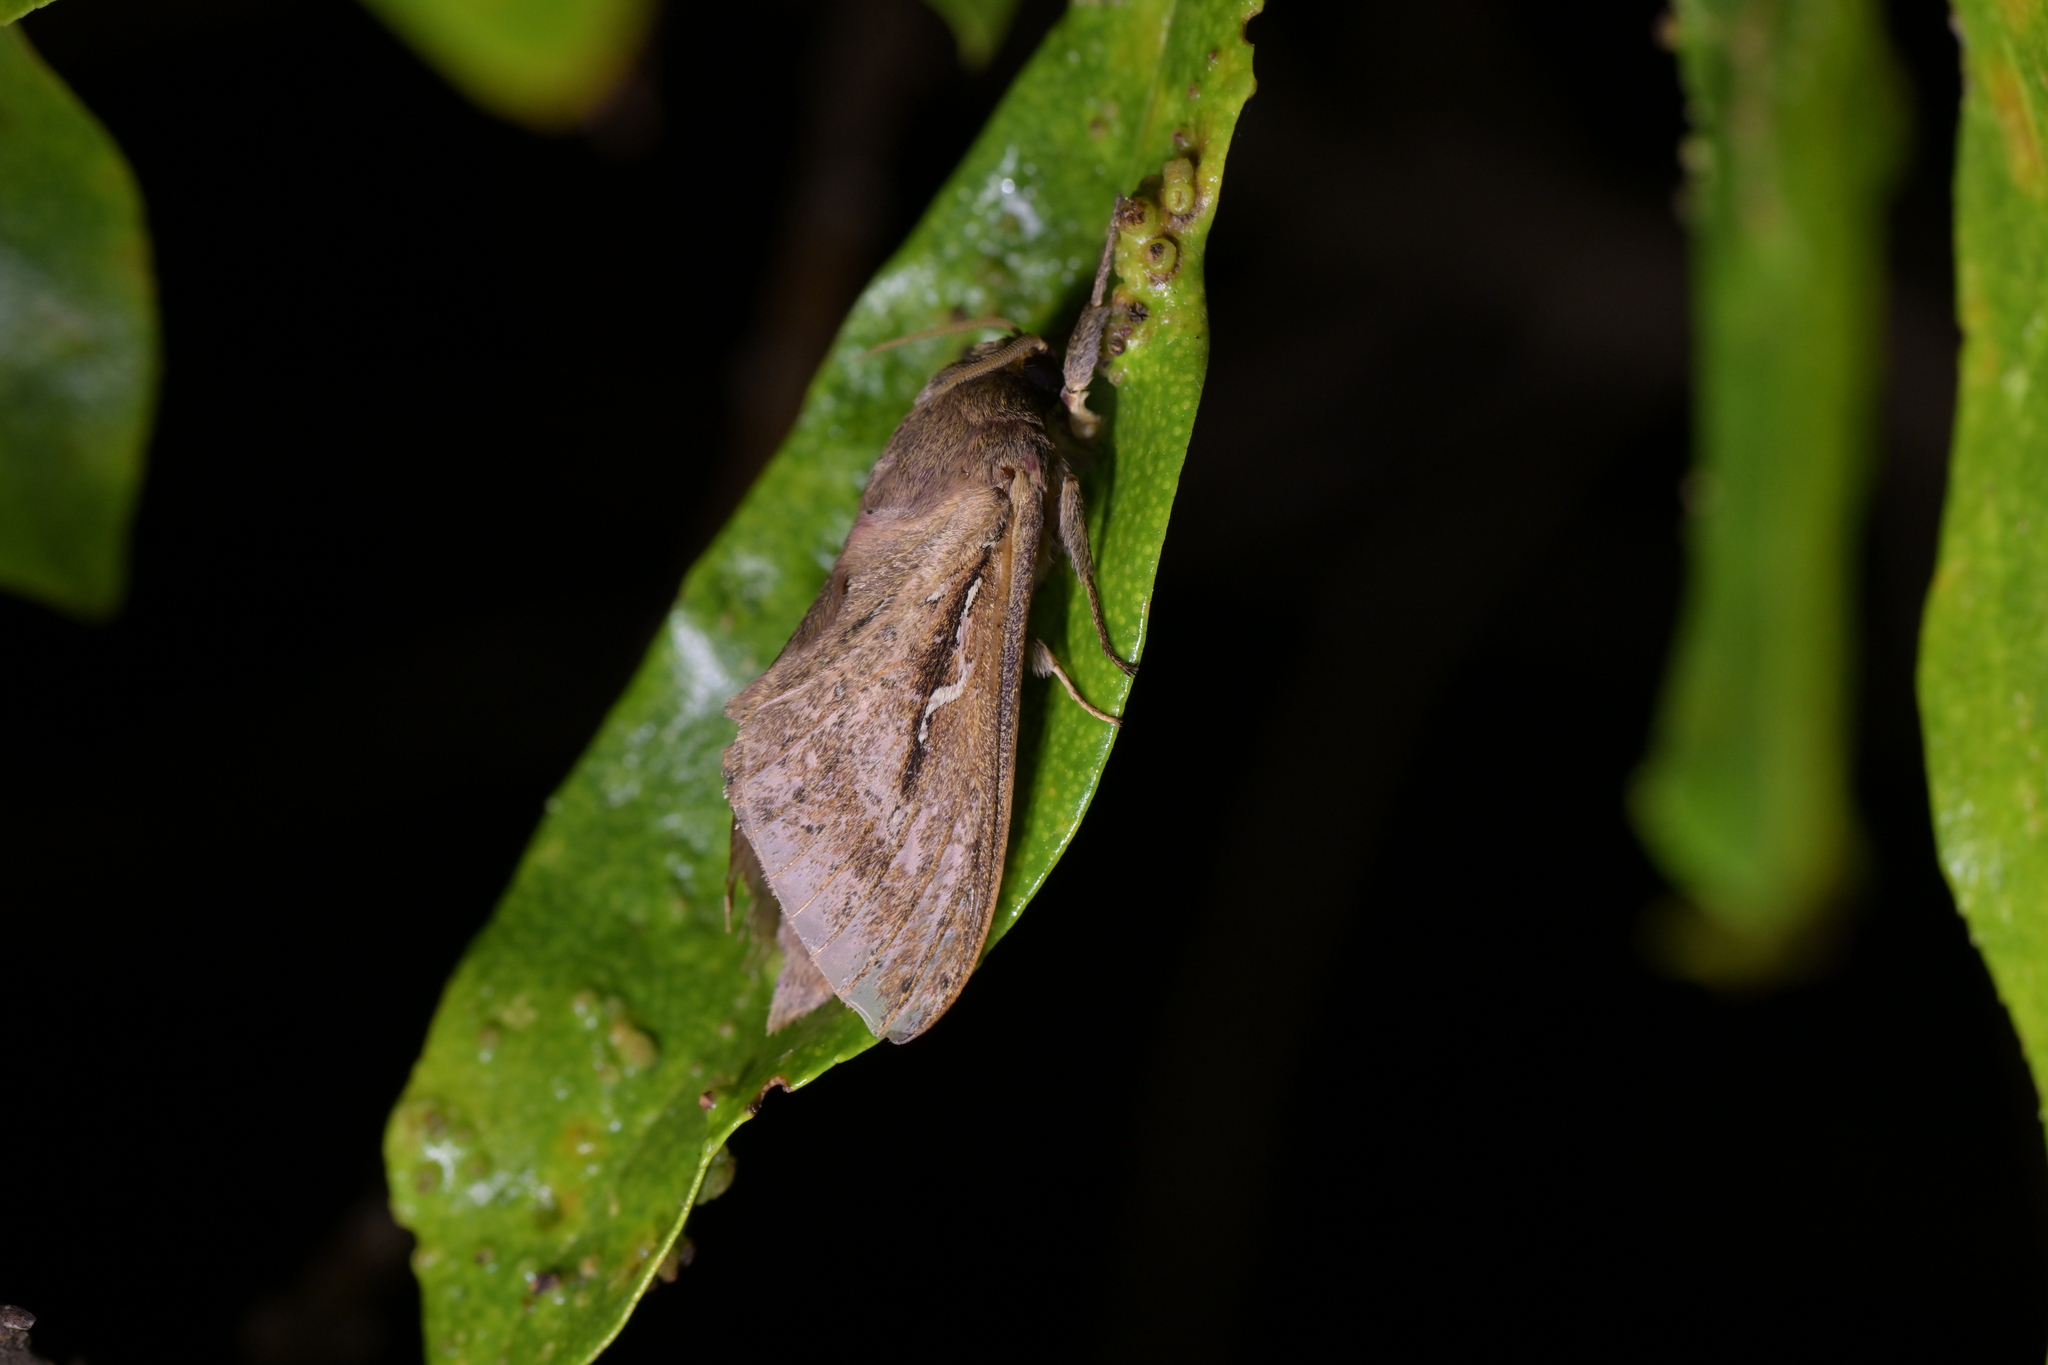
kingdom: Animalia
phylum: Arthropoda
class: Insecta
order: Lepidoptera
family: Hepialidae
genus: Wiseana
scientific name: Wiseana signata
